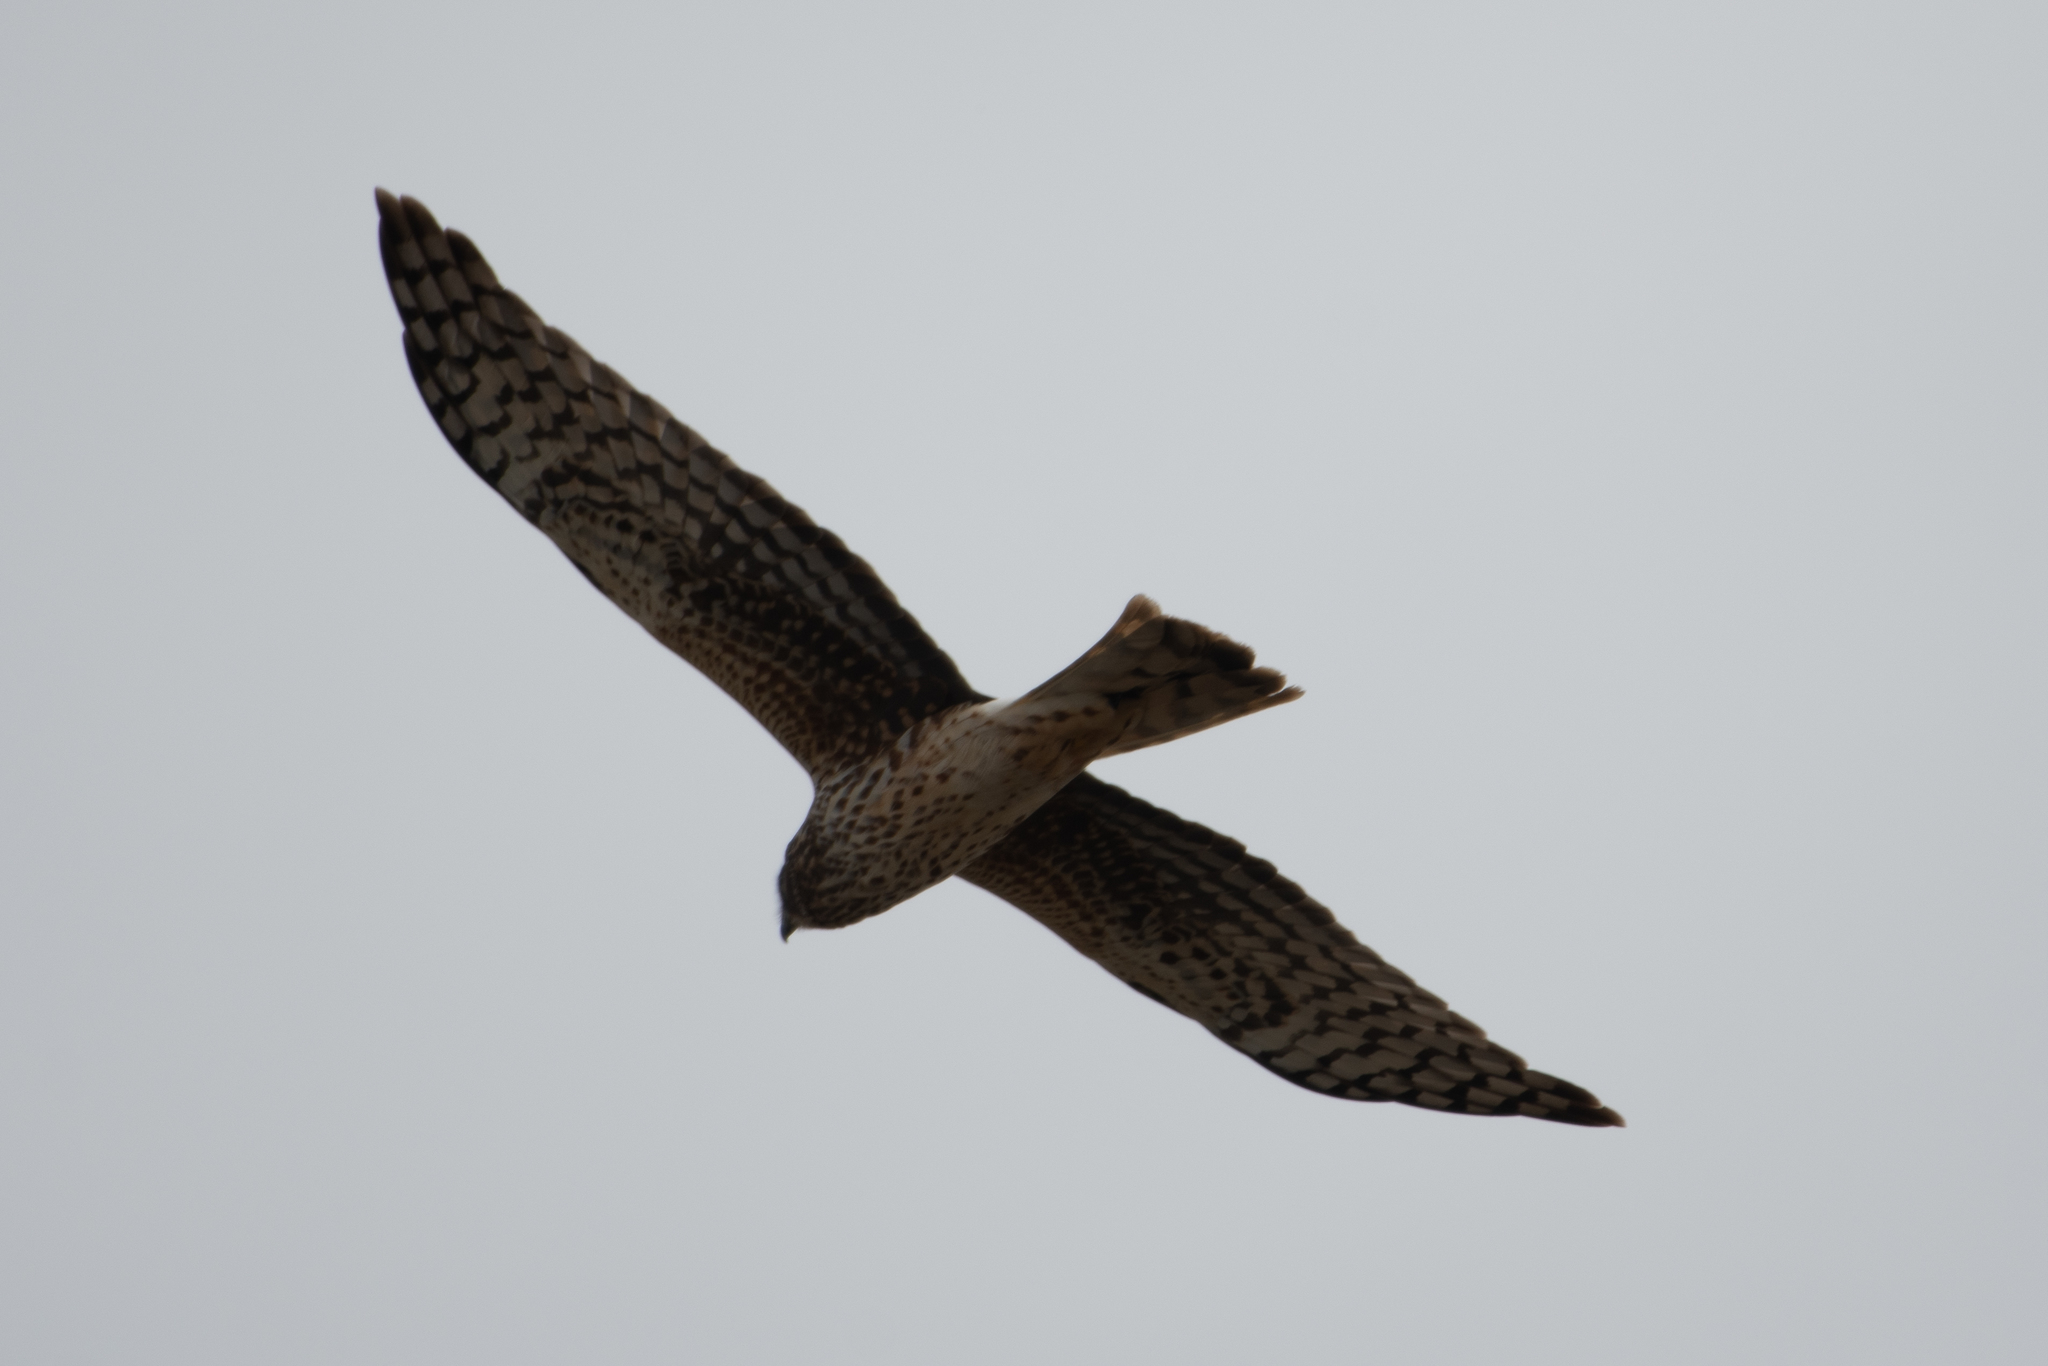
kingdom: Animalia
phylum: Chordata
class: Aves
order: Accipitriformes
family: Accipitridae
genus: Circus
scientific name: Circus cyaneus
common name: Hen harrier
